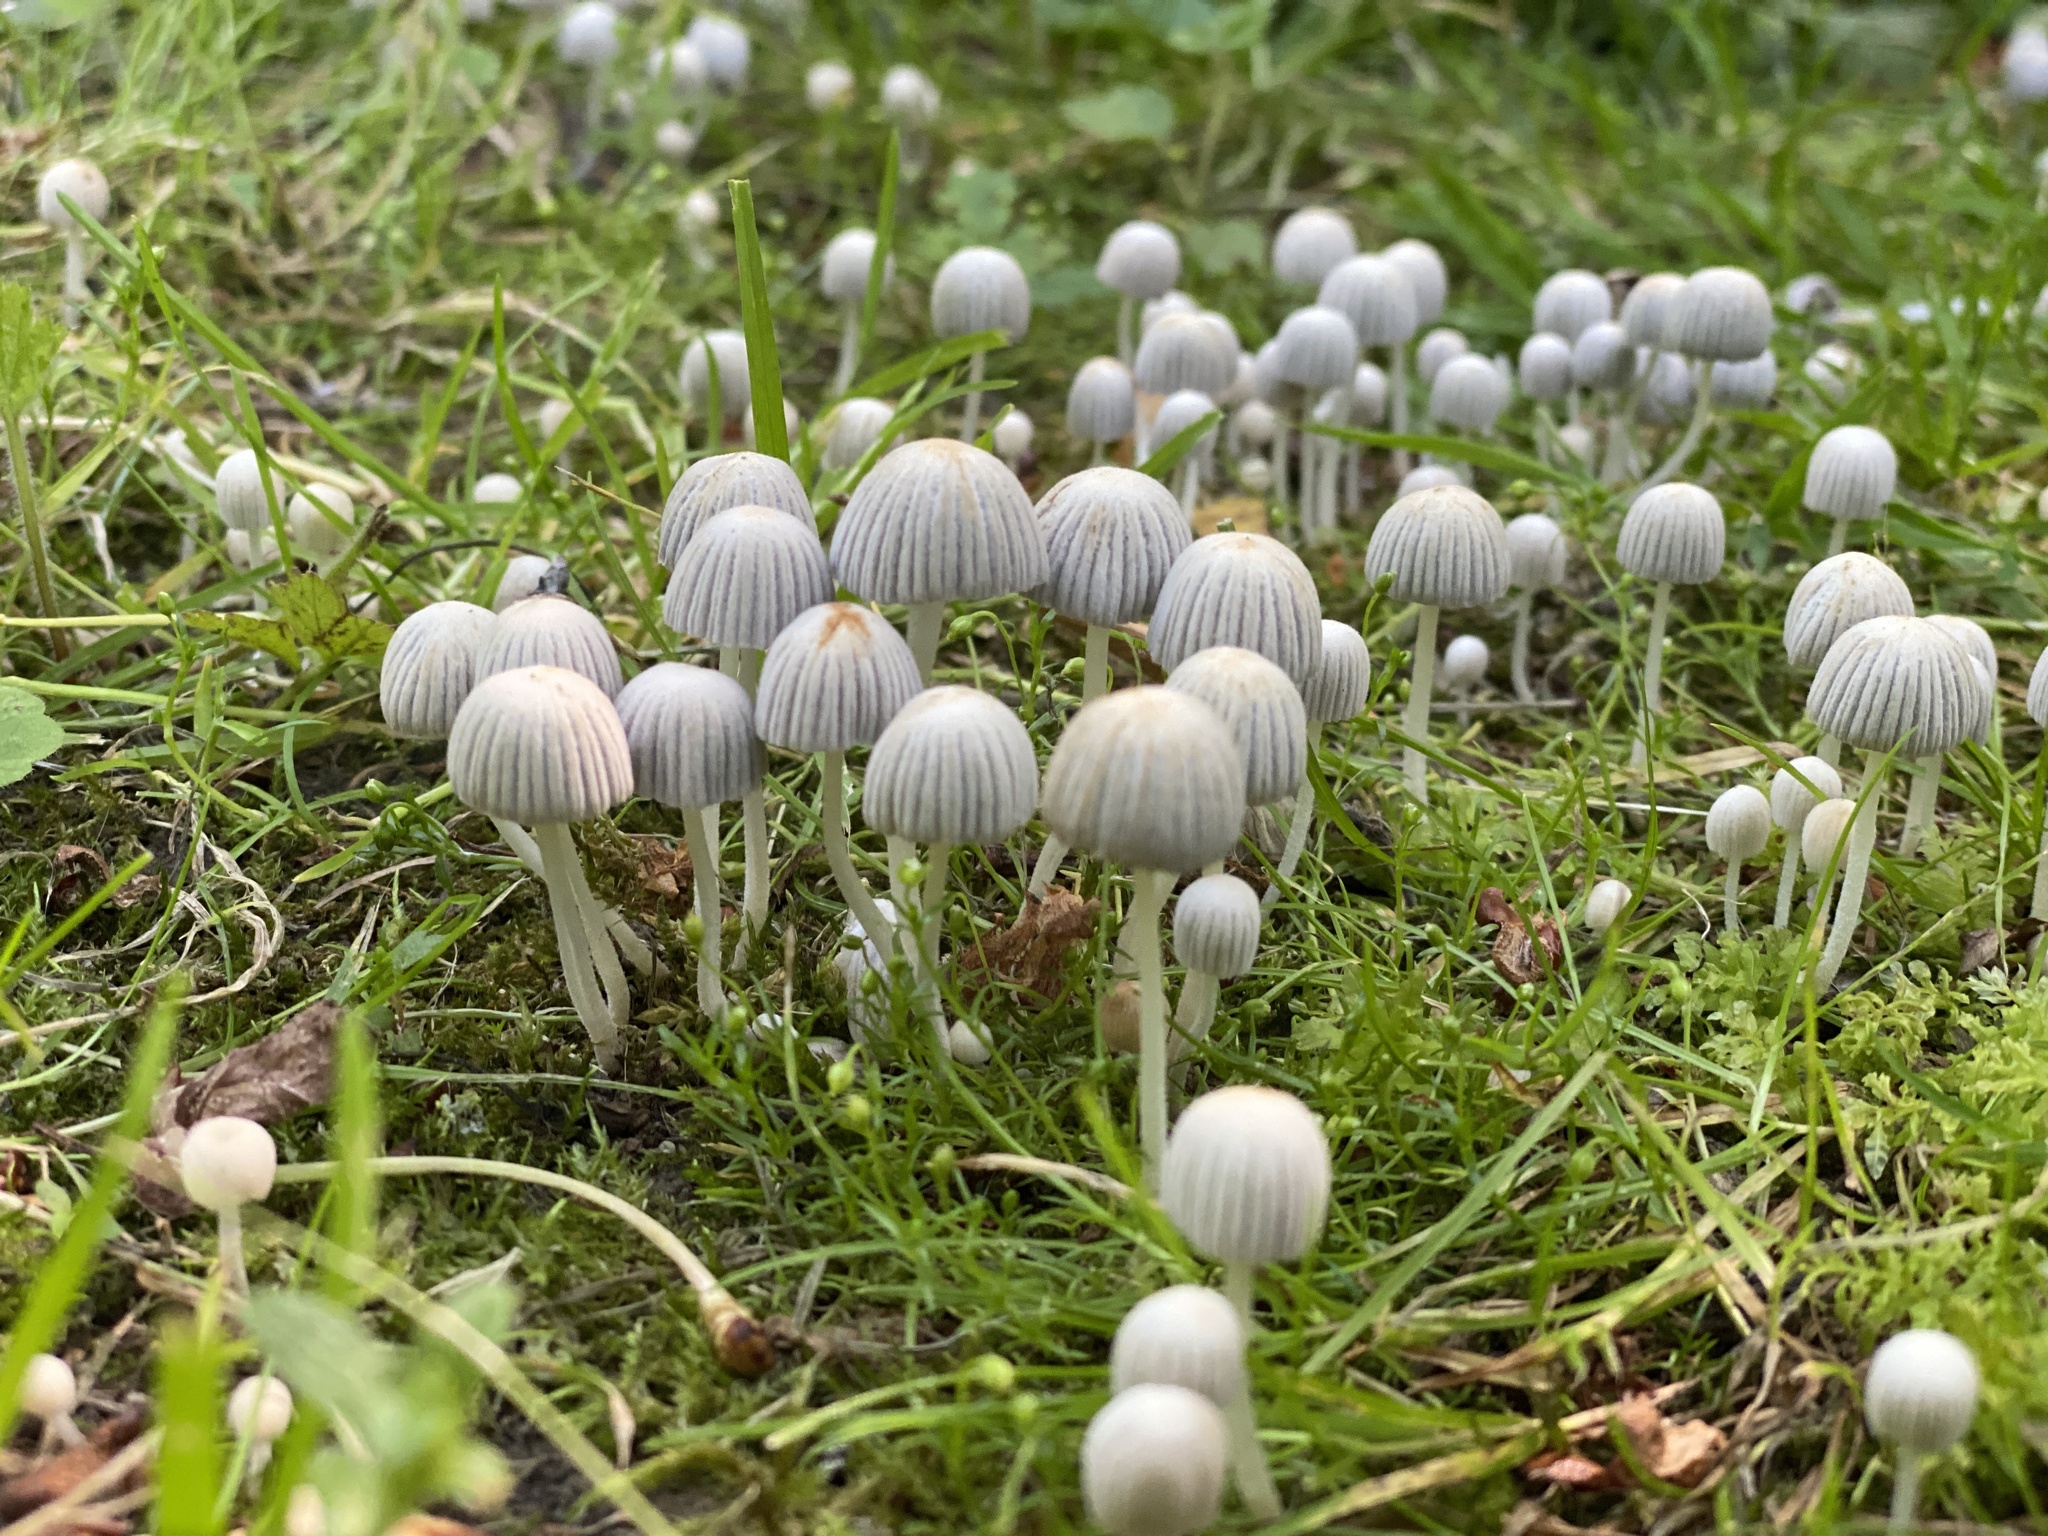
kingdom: Fungi
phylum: Basidiomycota
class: Agaricomycetes
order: Agaricales
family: Psathyrellaceae
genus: Coprinellus
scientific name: Coprinellus disseminatus
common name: Fairies' bonnets
